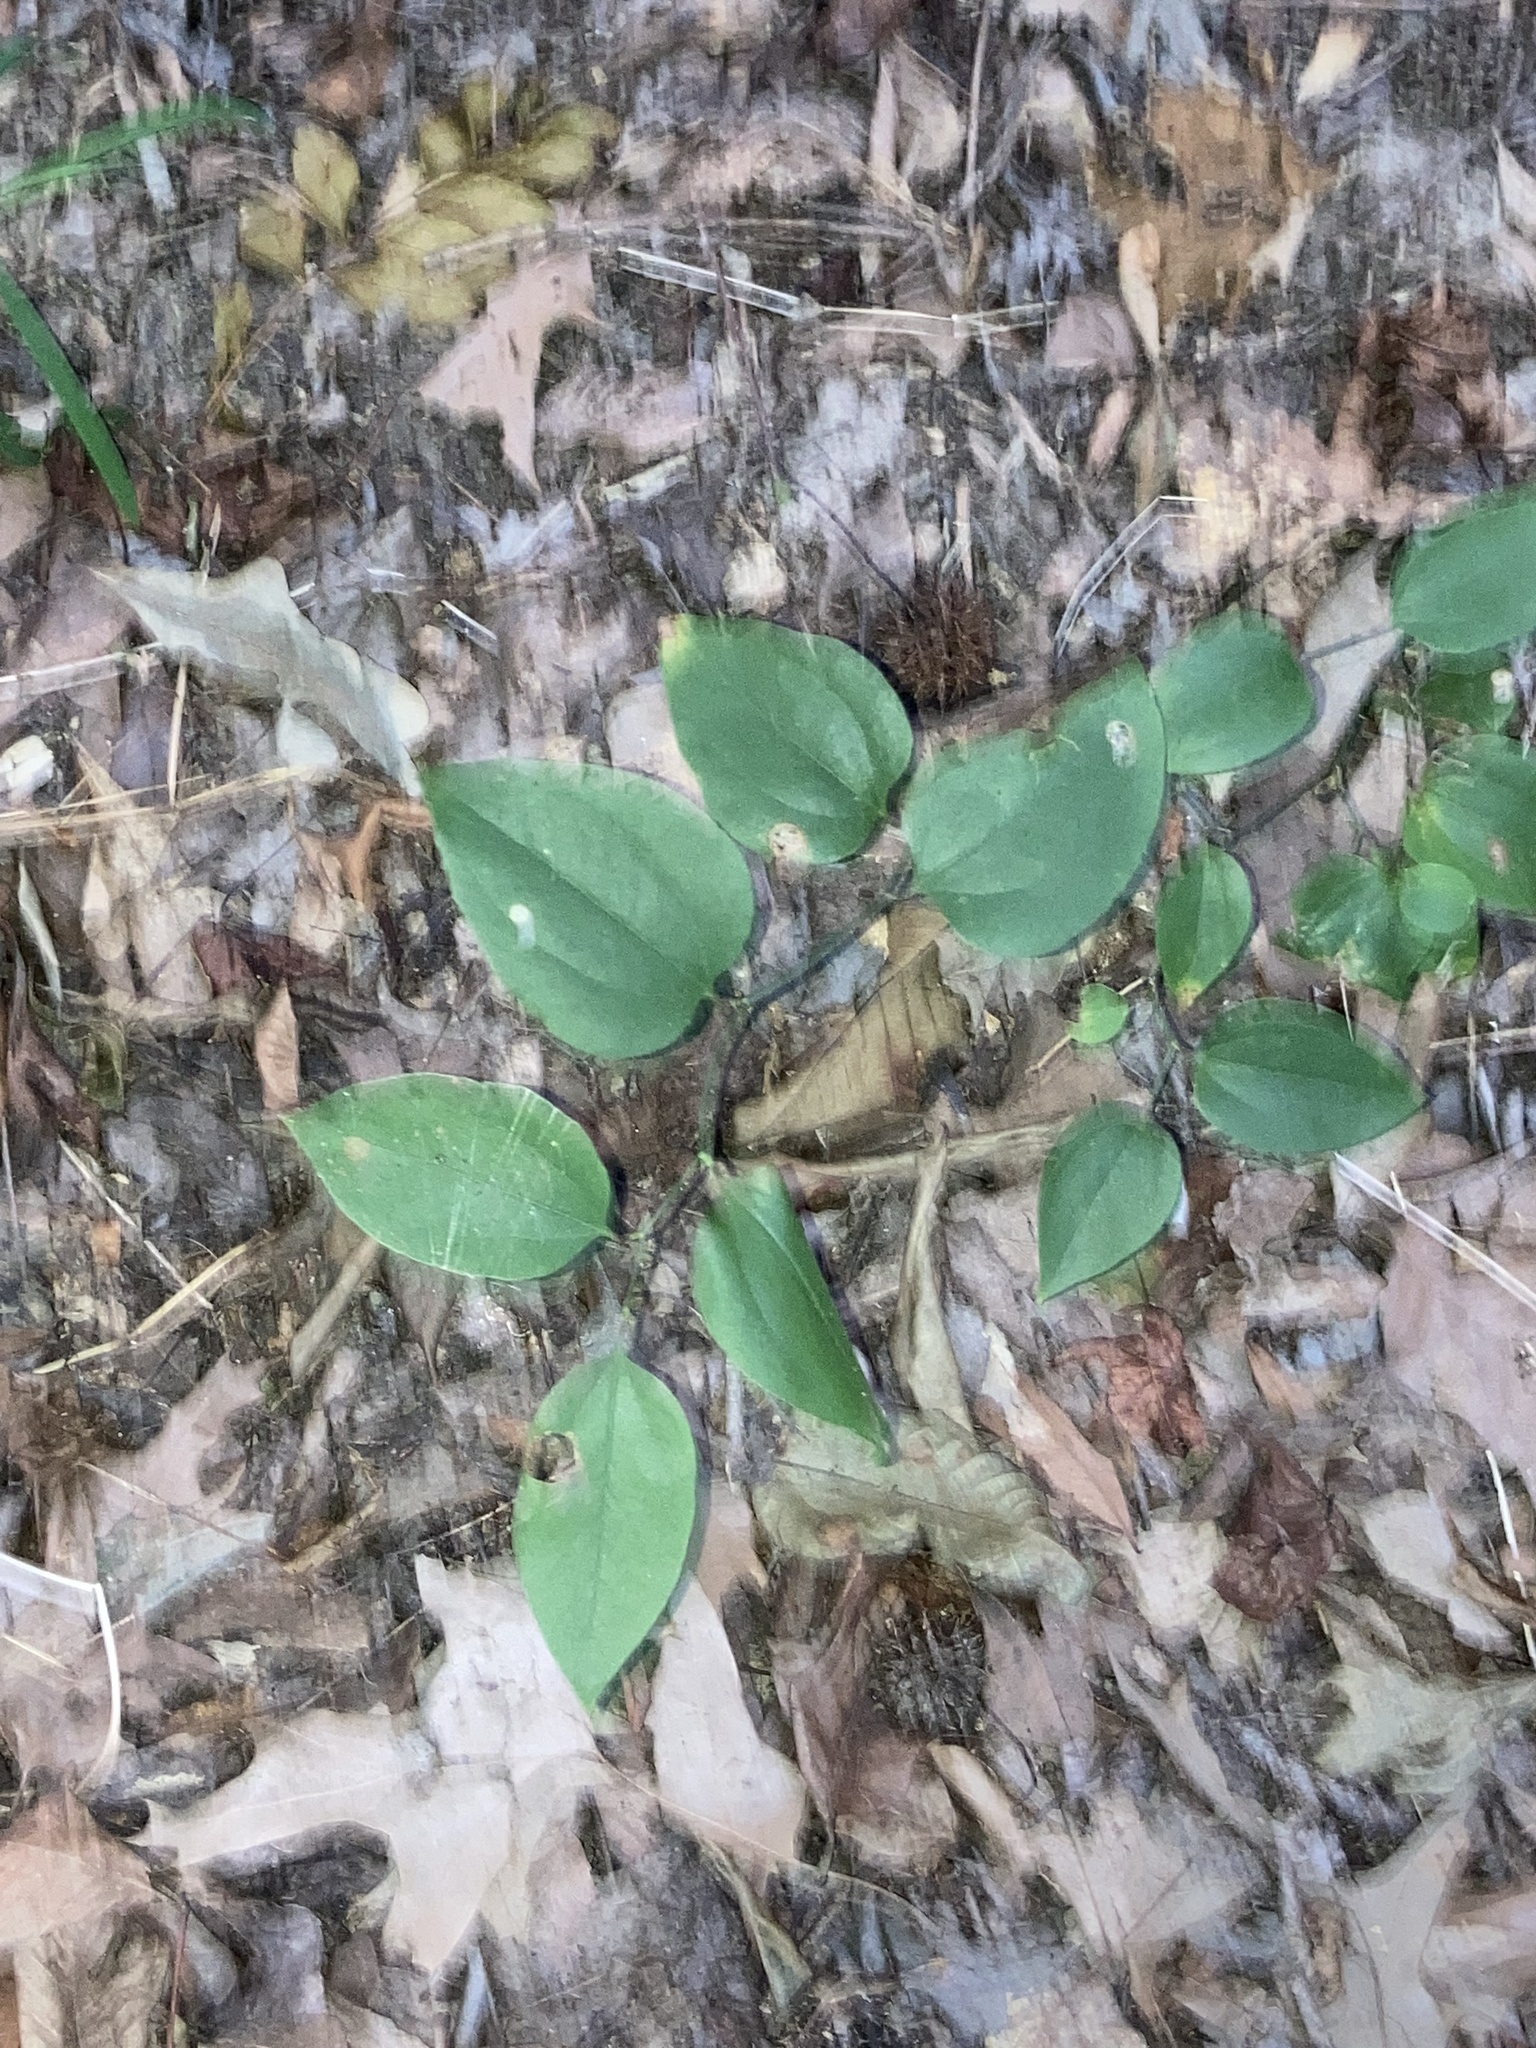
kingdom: Plantae
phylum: Tracheophyta
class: Liliopsida
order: Liliales
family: Smilacaceae
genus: Smilax
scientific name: Smilax rotundifolia
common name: Bullbriar
